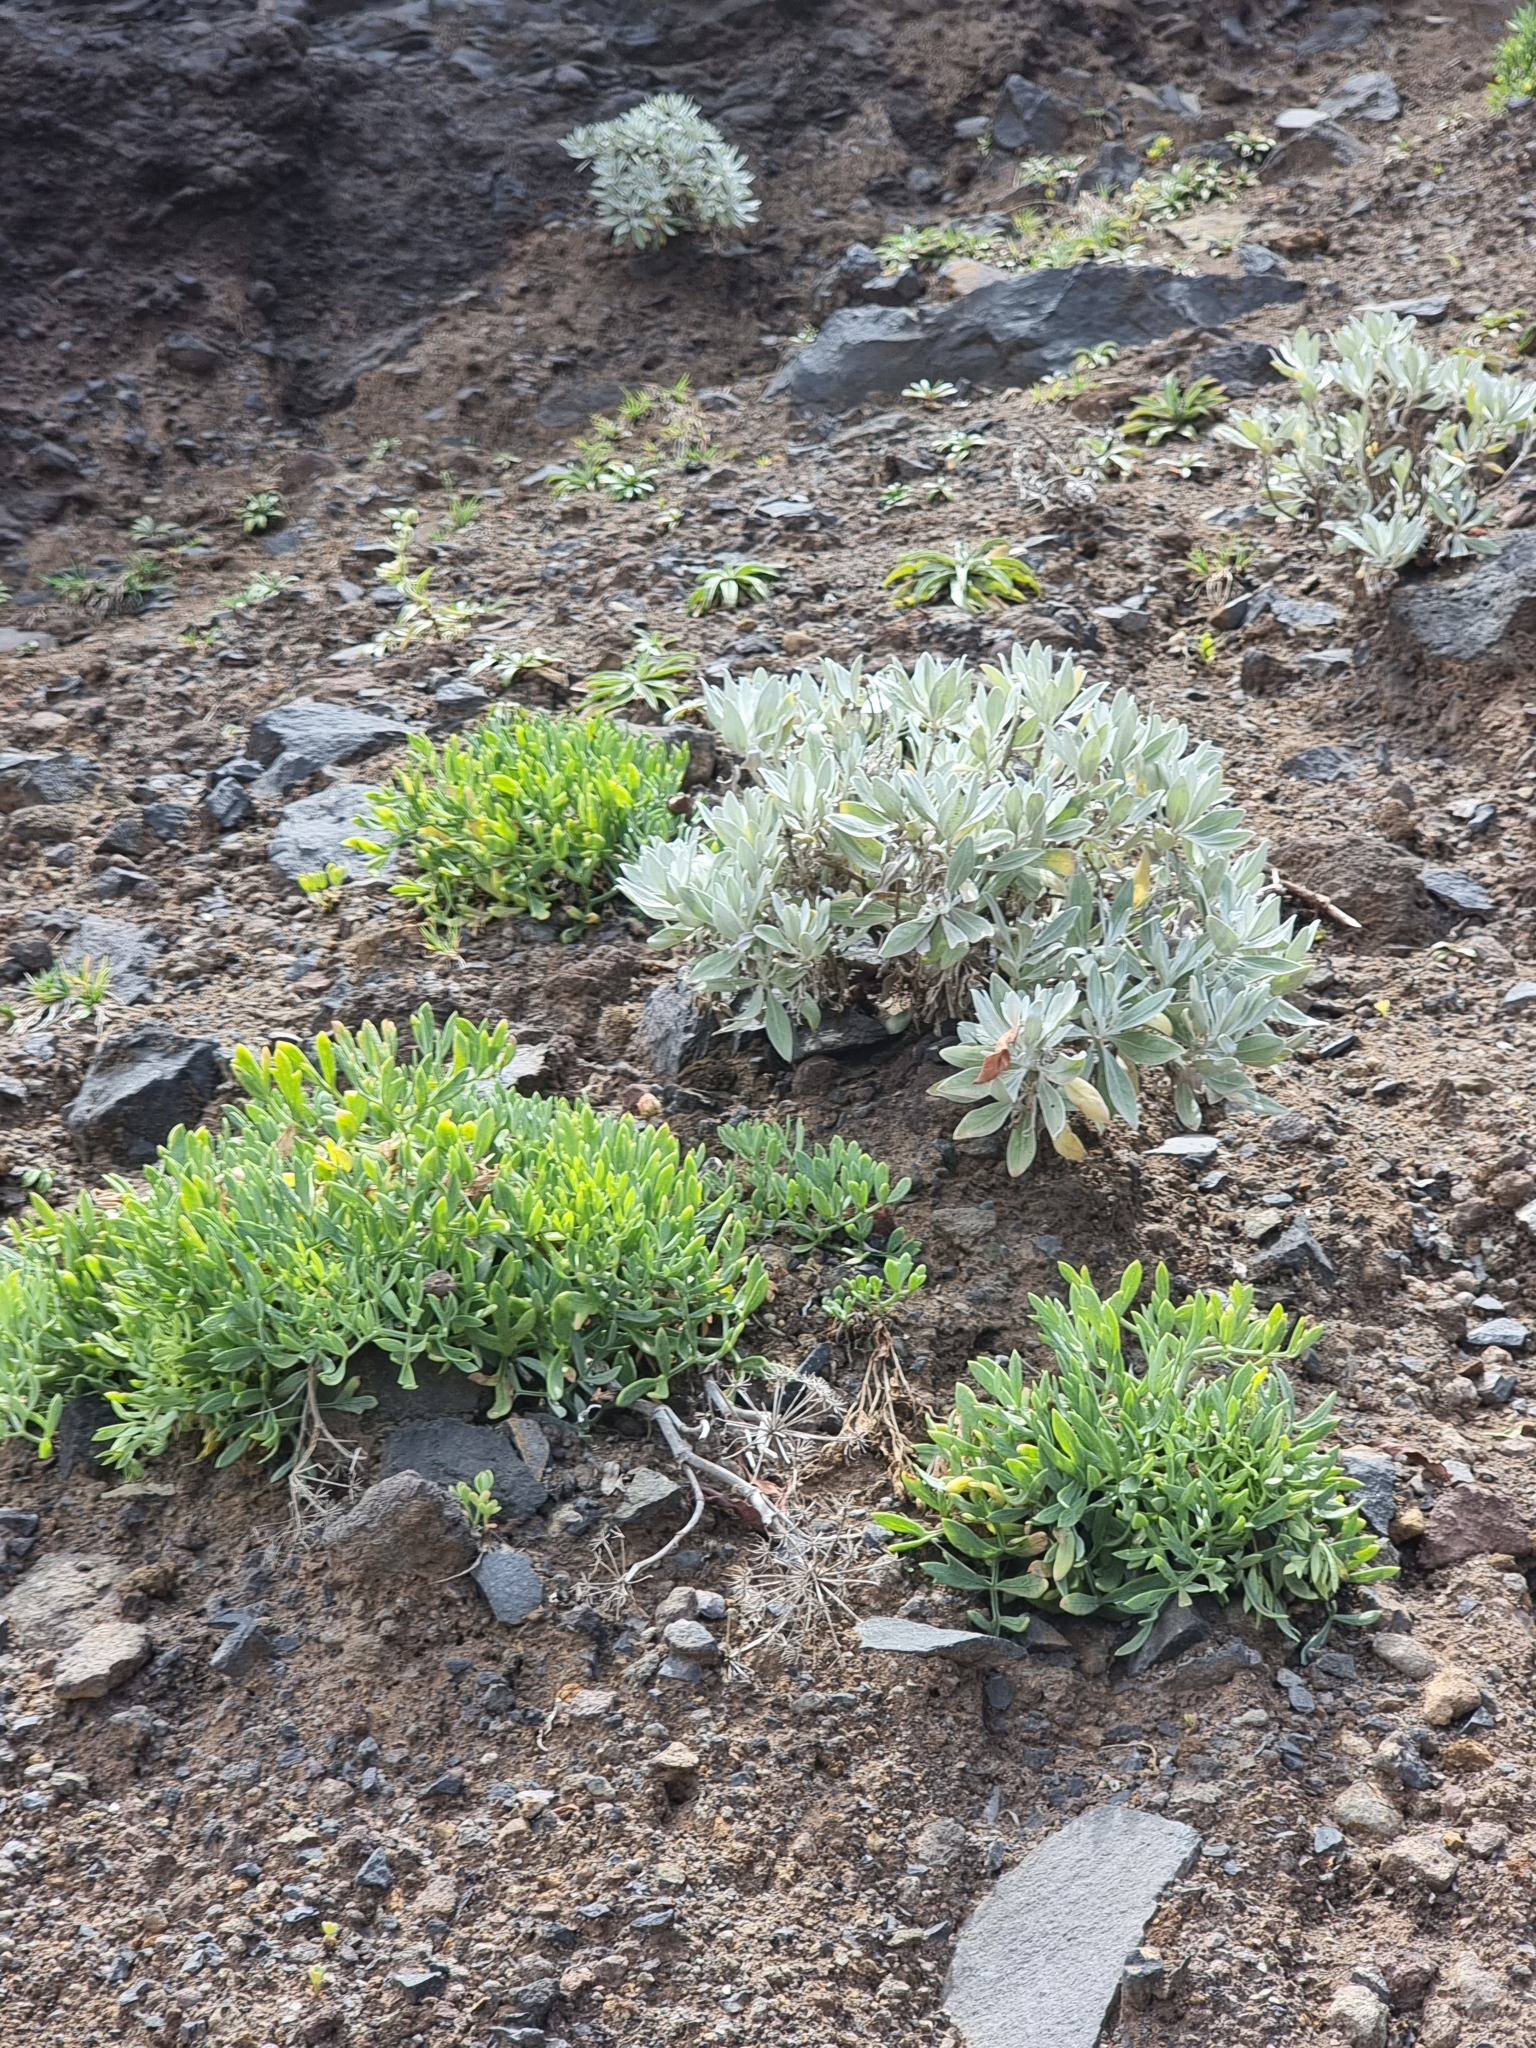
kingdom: Plantae
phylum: Tracheophyta
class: Magnoliopsida
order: Asterales
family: Asteraceae
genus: Helichrysum
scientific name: Helichrysum melaleucum
